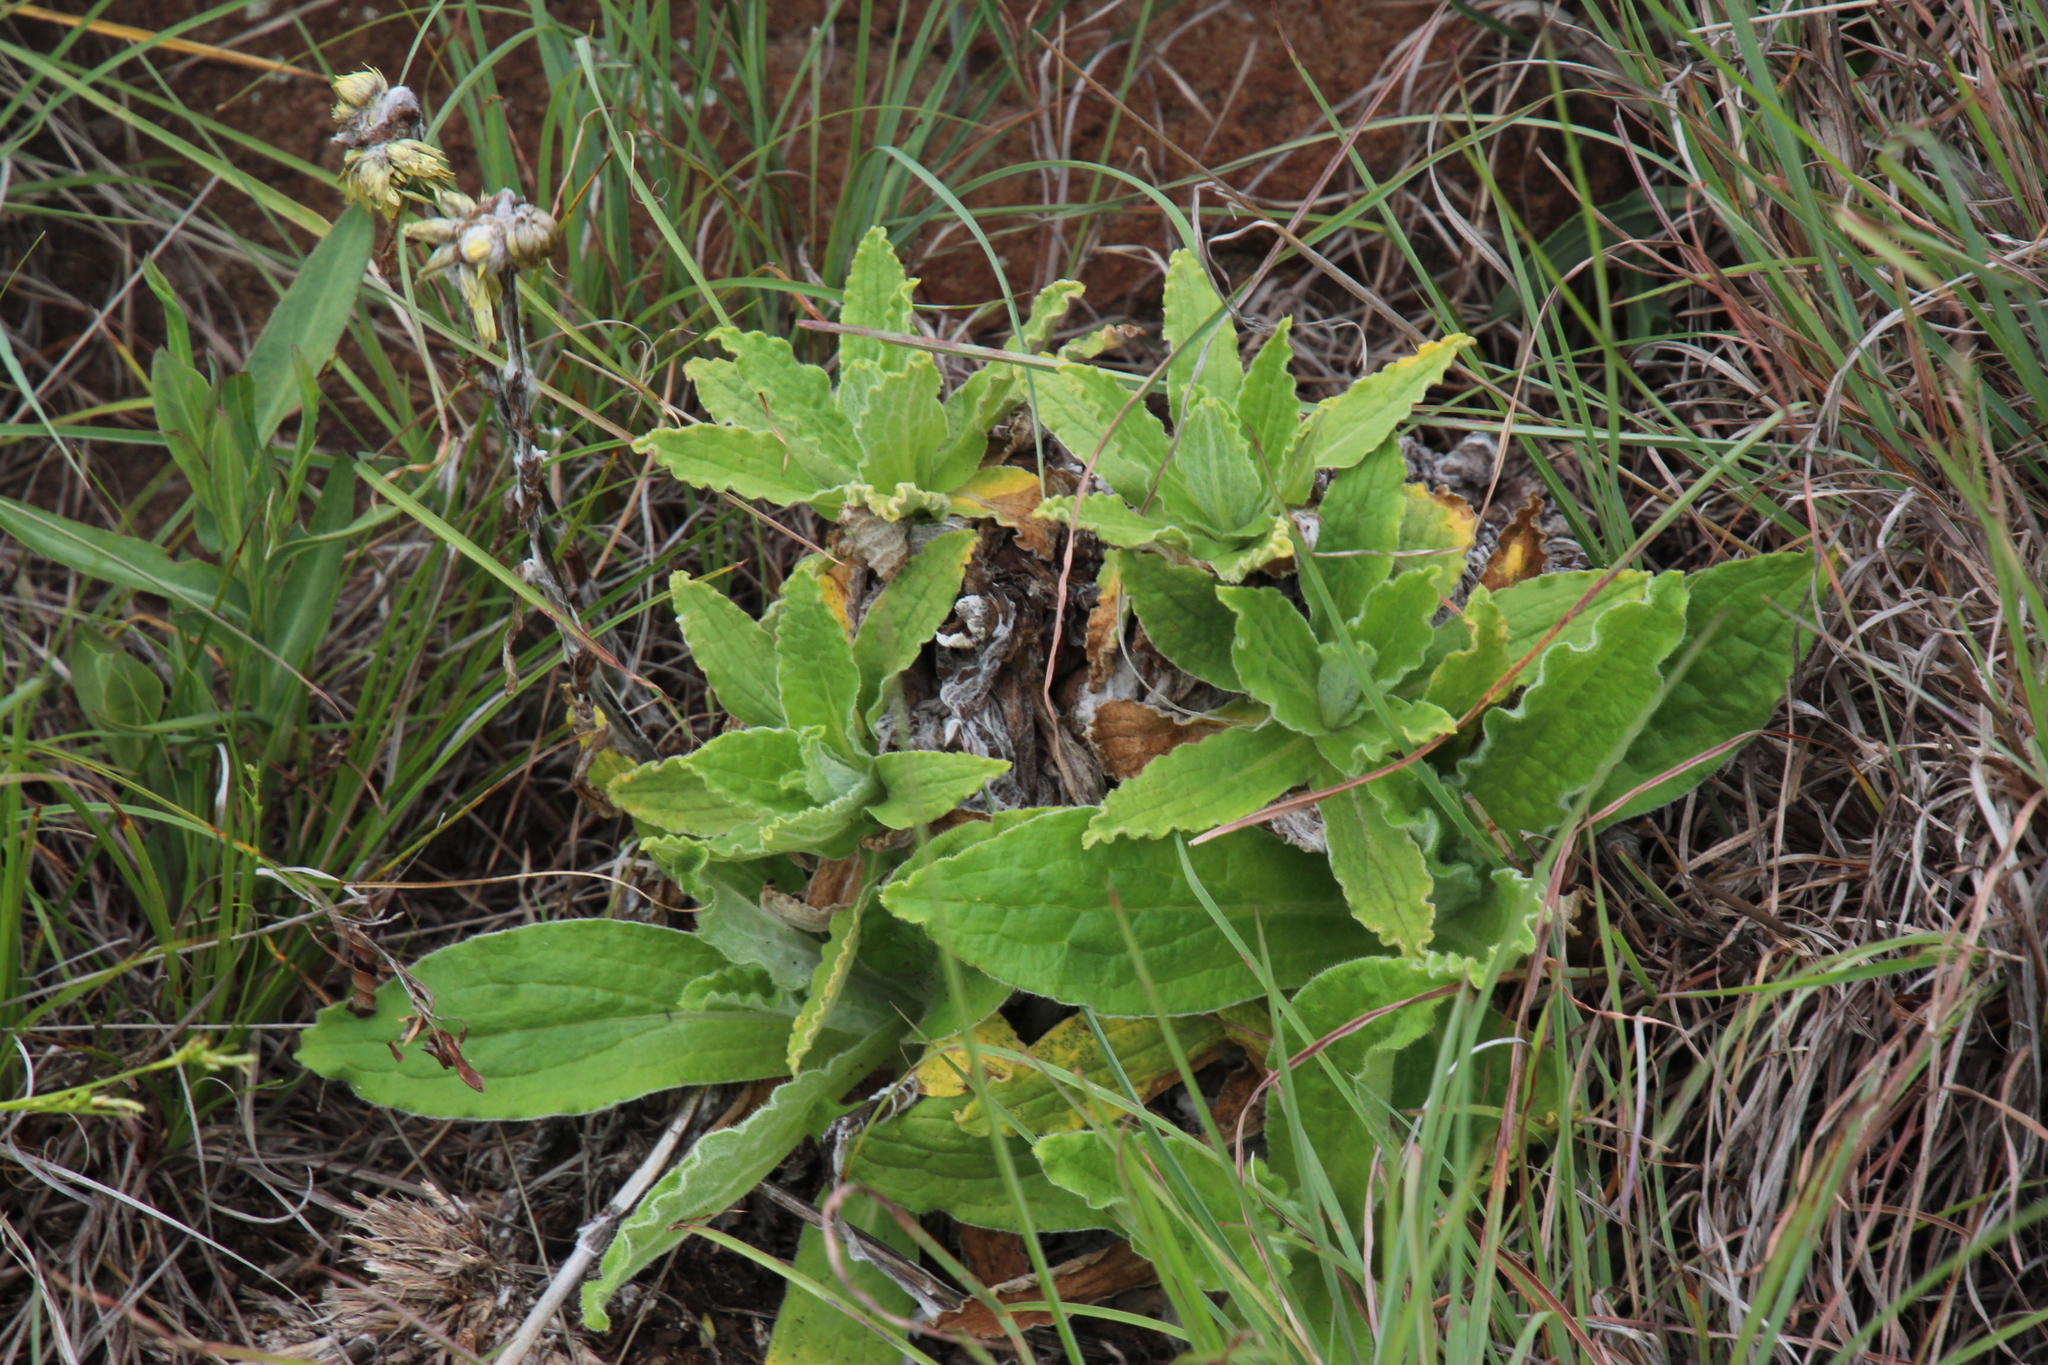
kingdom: Plantae
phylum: Tracheophyta
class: Magnoliopsida
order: Asterales
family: Asteraceae
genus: Helichrysum
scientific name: Helichrysum tenax
